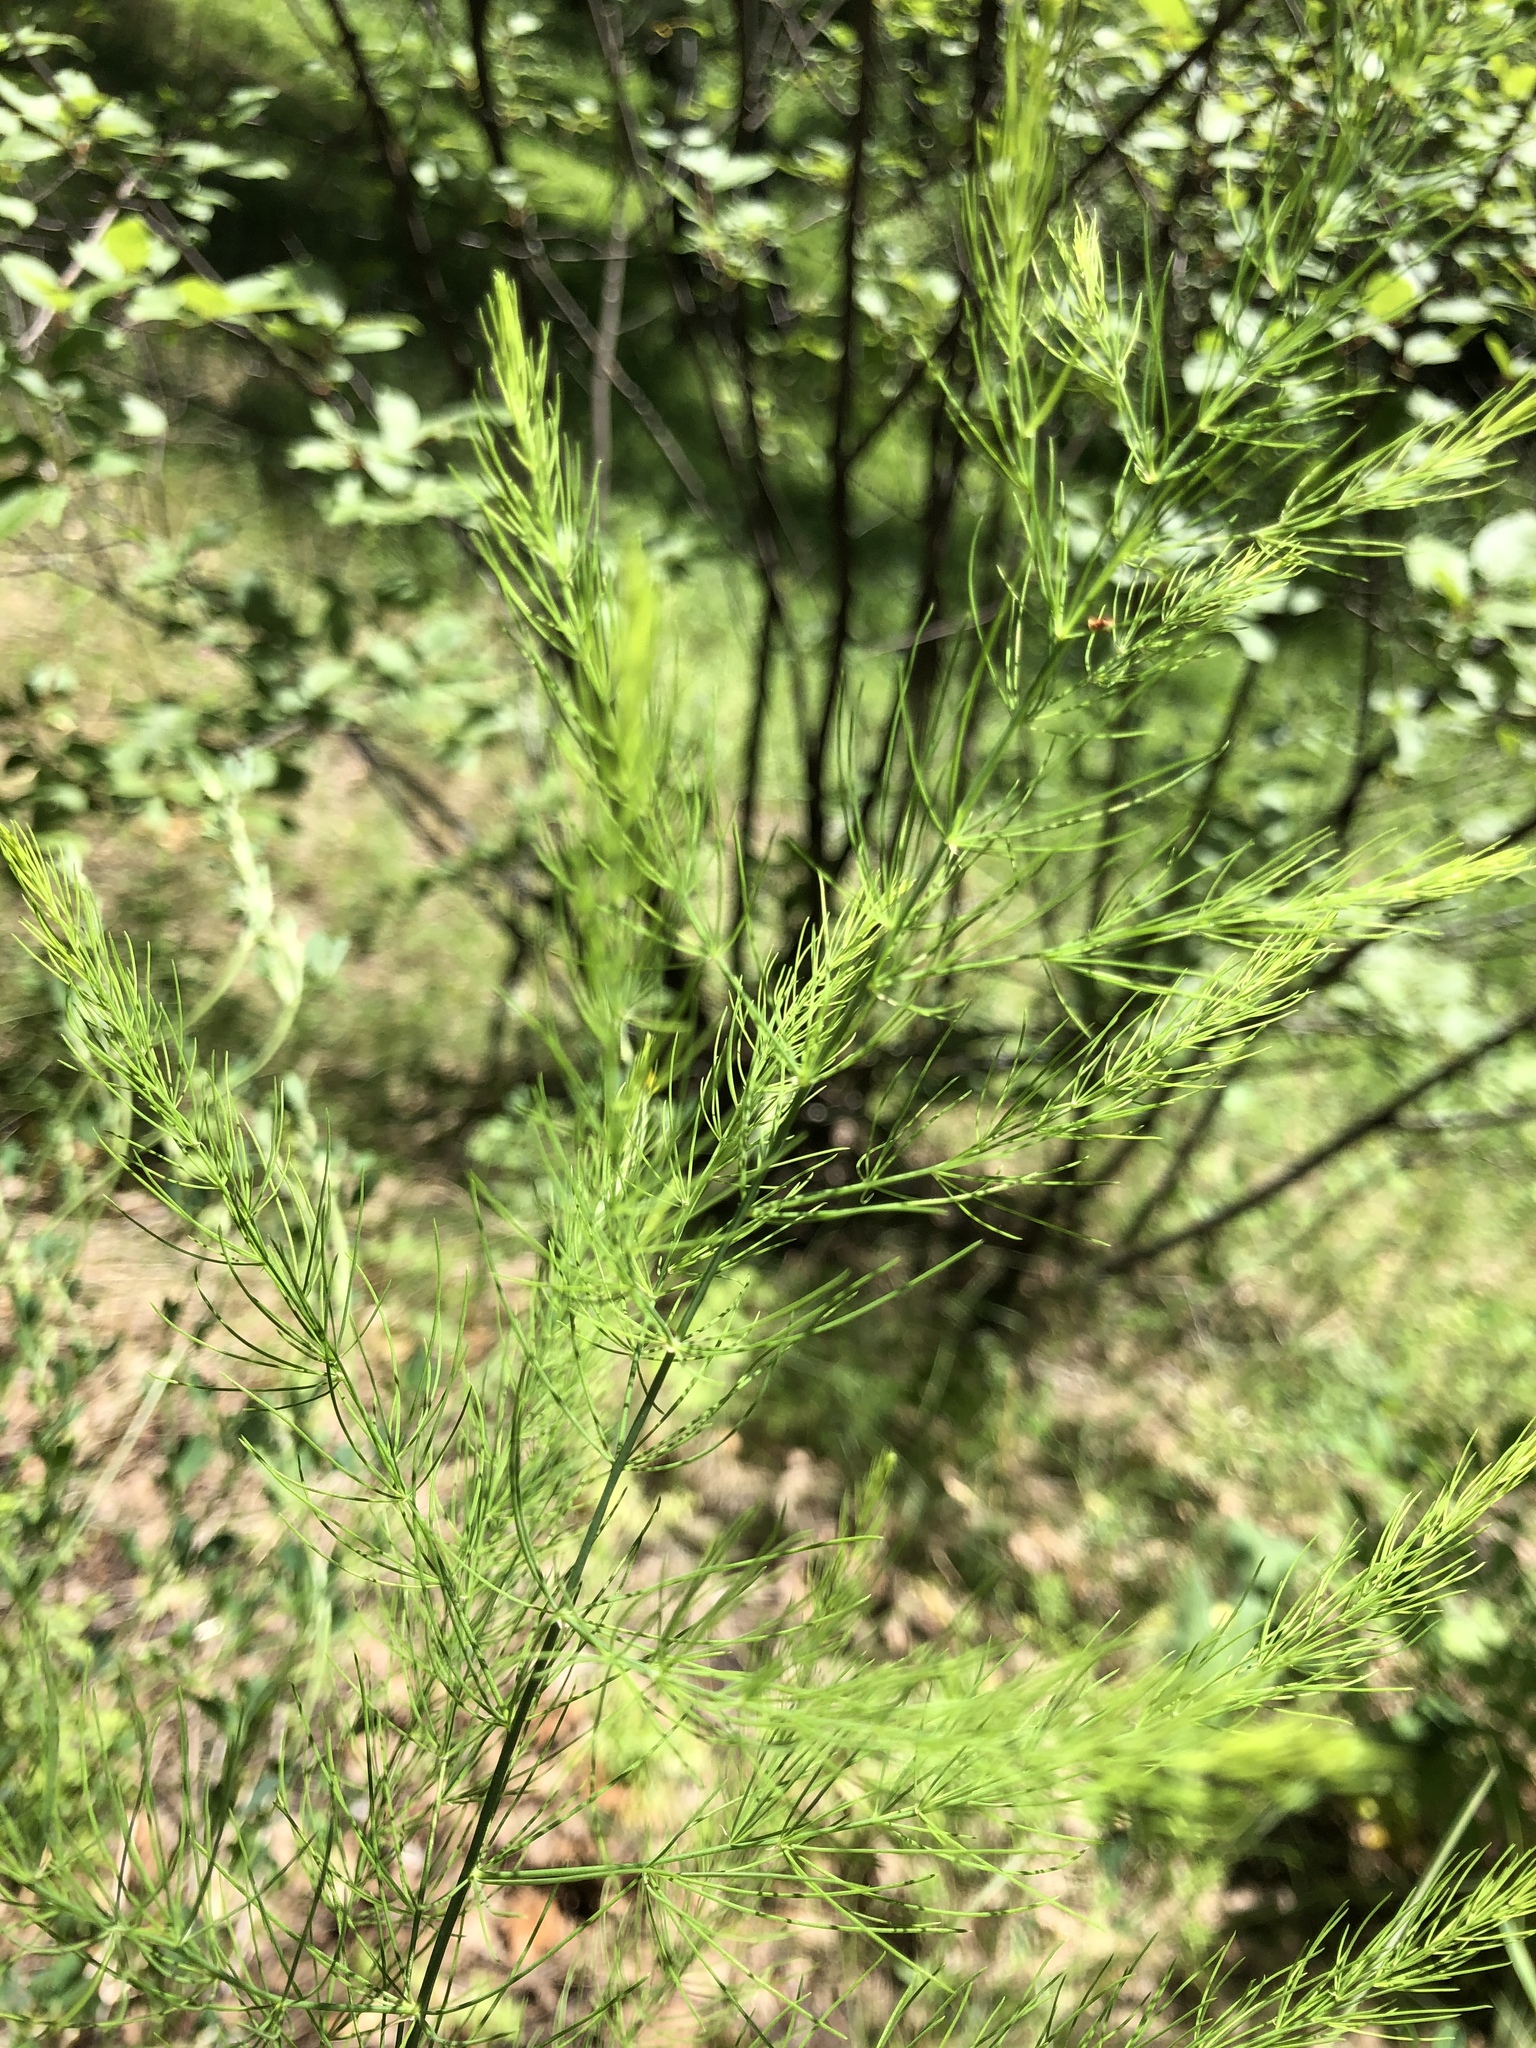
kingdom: Plantae
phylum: Tracheophyta
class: Liliopsida
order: Asparagales
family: Asparagaceae
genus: Asparagus
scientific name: Asparagus officinalis
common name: Garden asparagus
